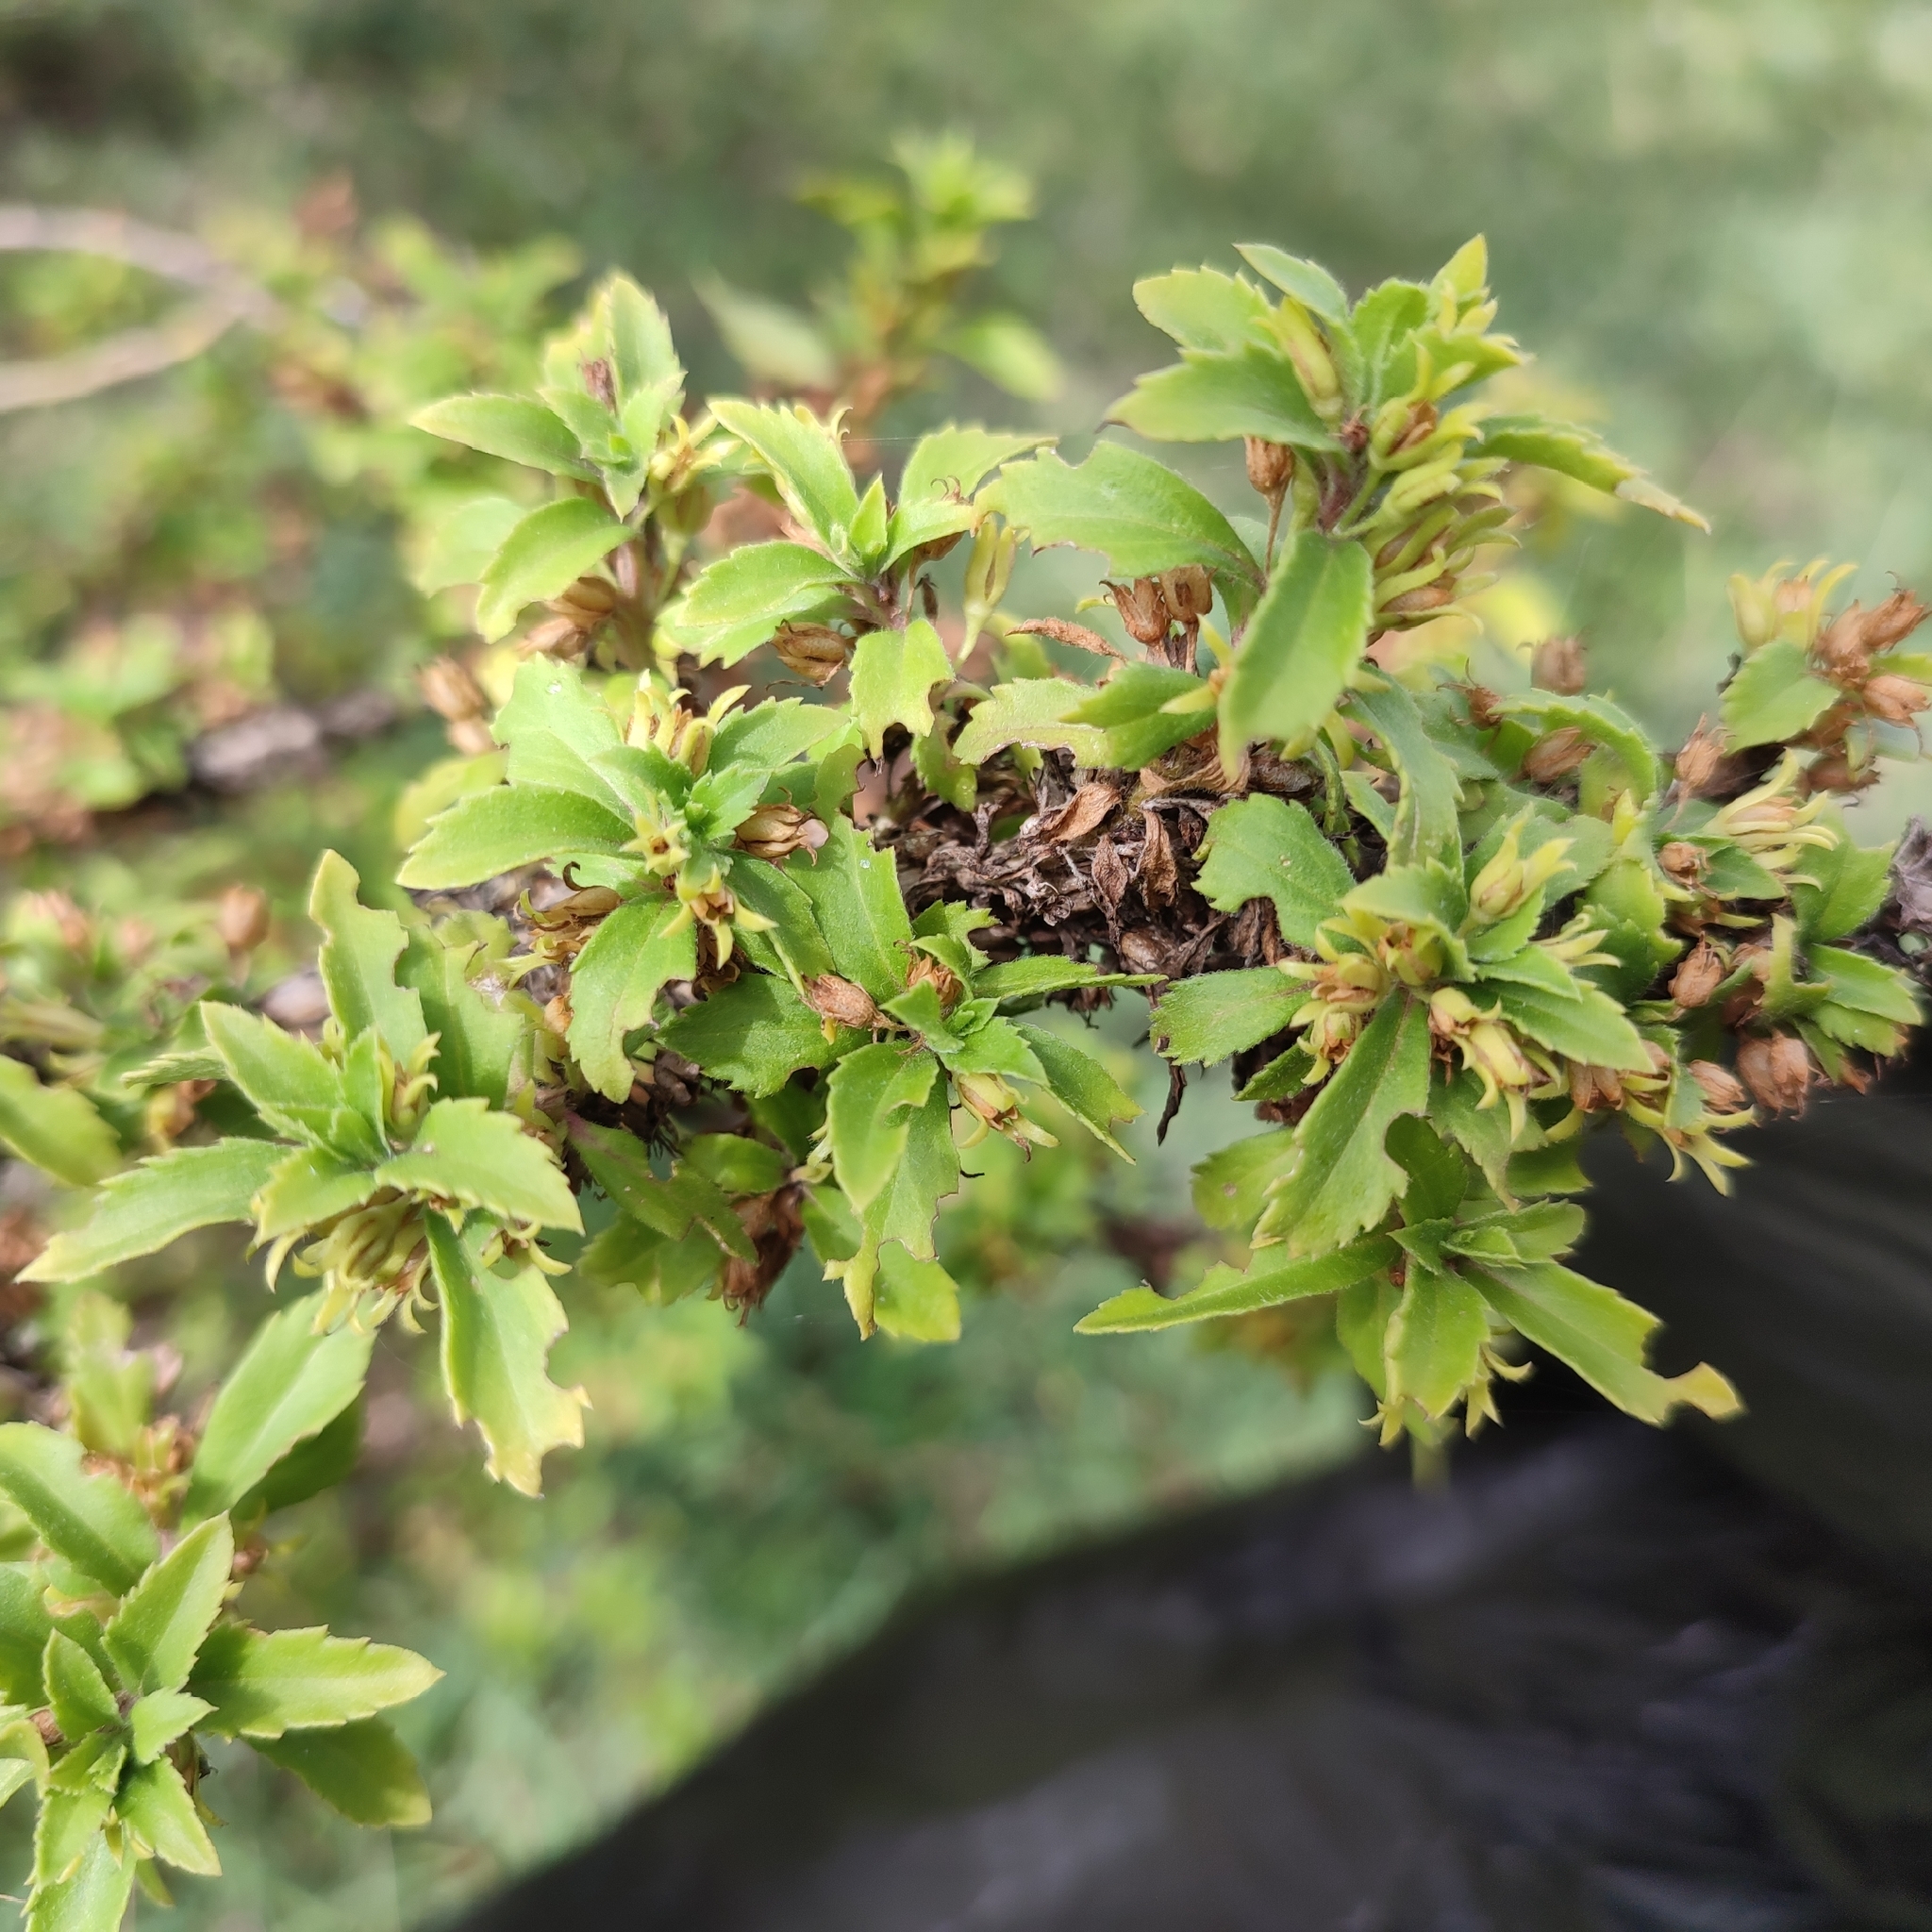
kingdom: Plantae
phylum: Tracheophyta
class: Magnoliopsida
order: Lamiales
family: Scrophulariaceae
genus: Capraria
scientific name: Capraria biflora
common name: Goatweed
